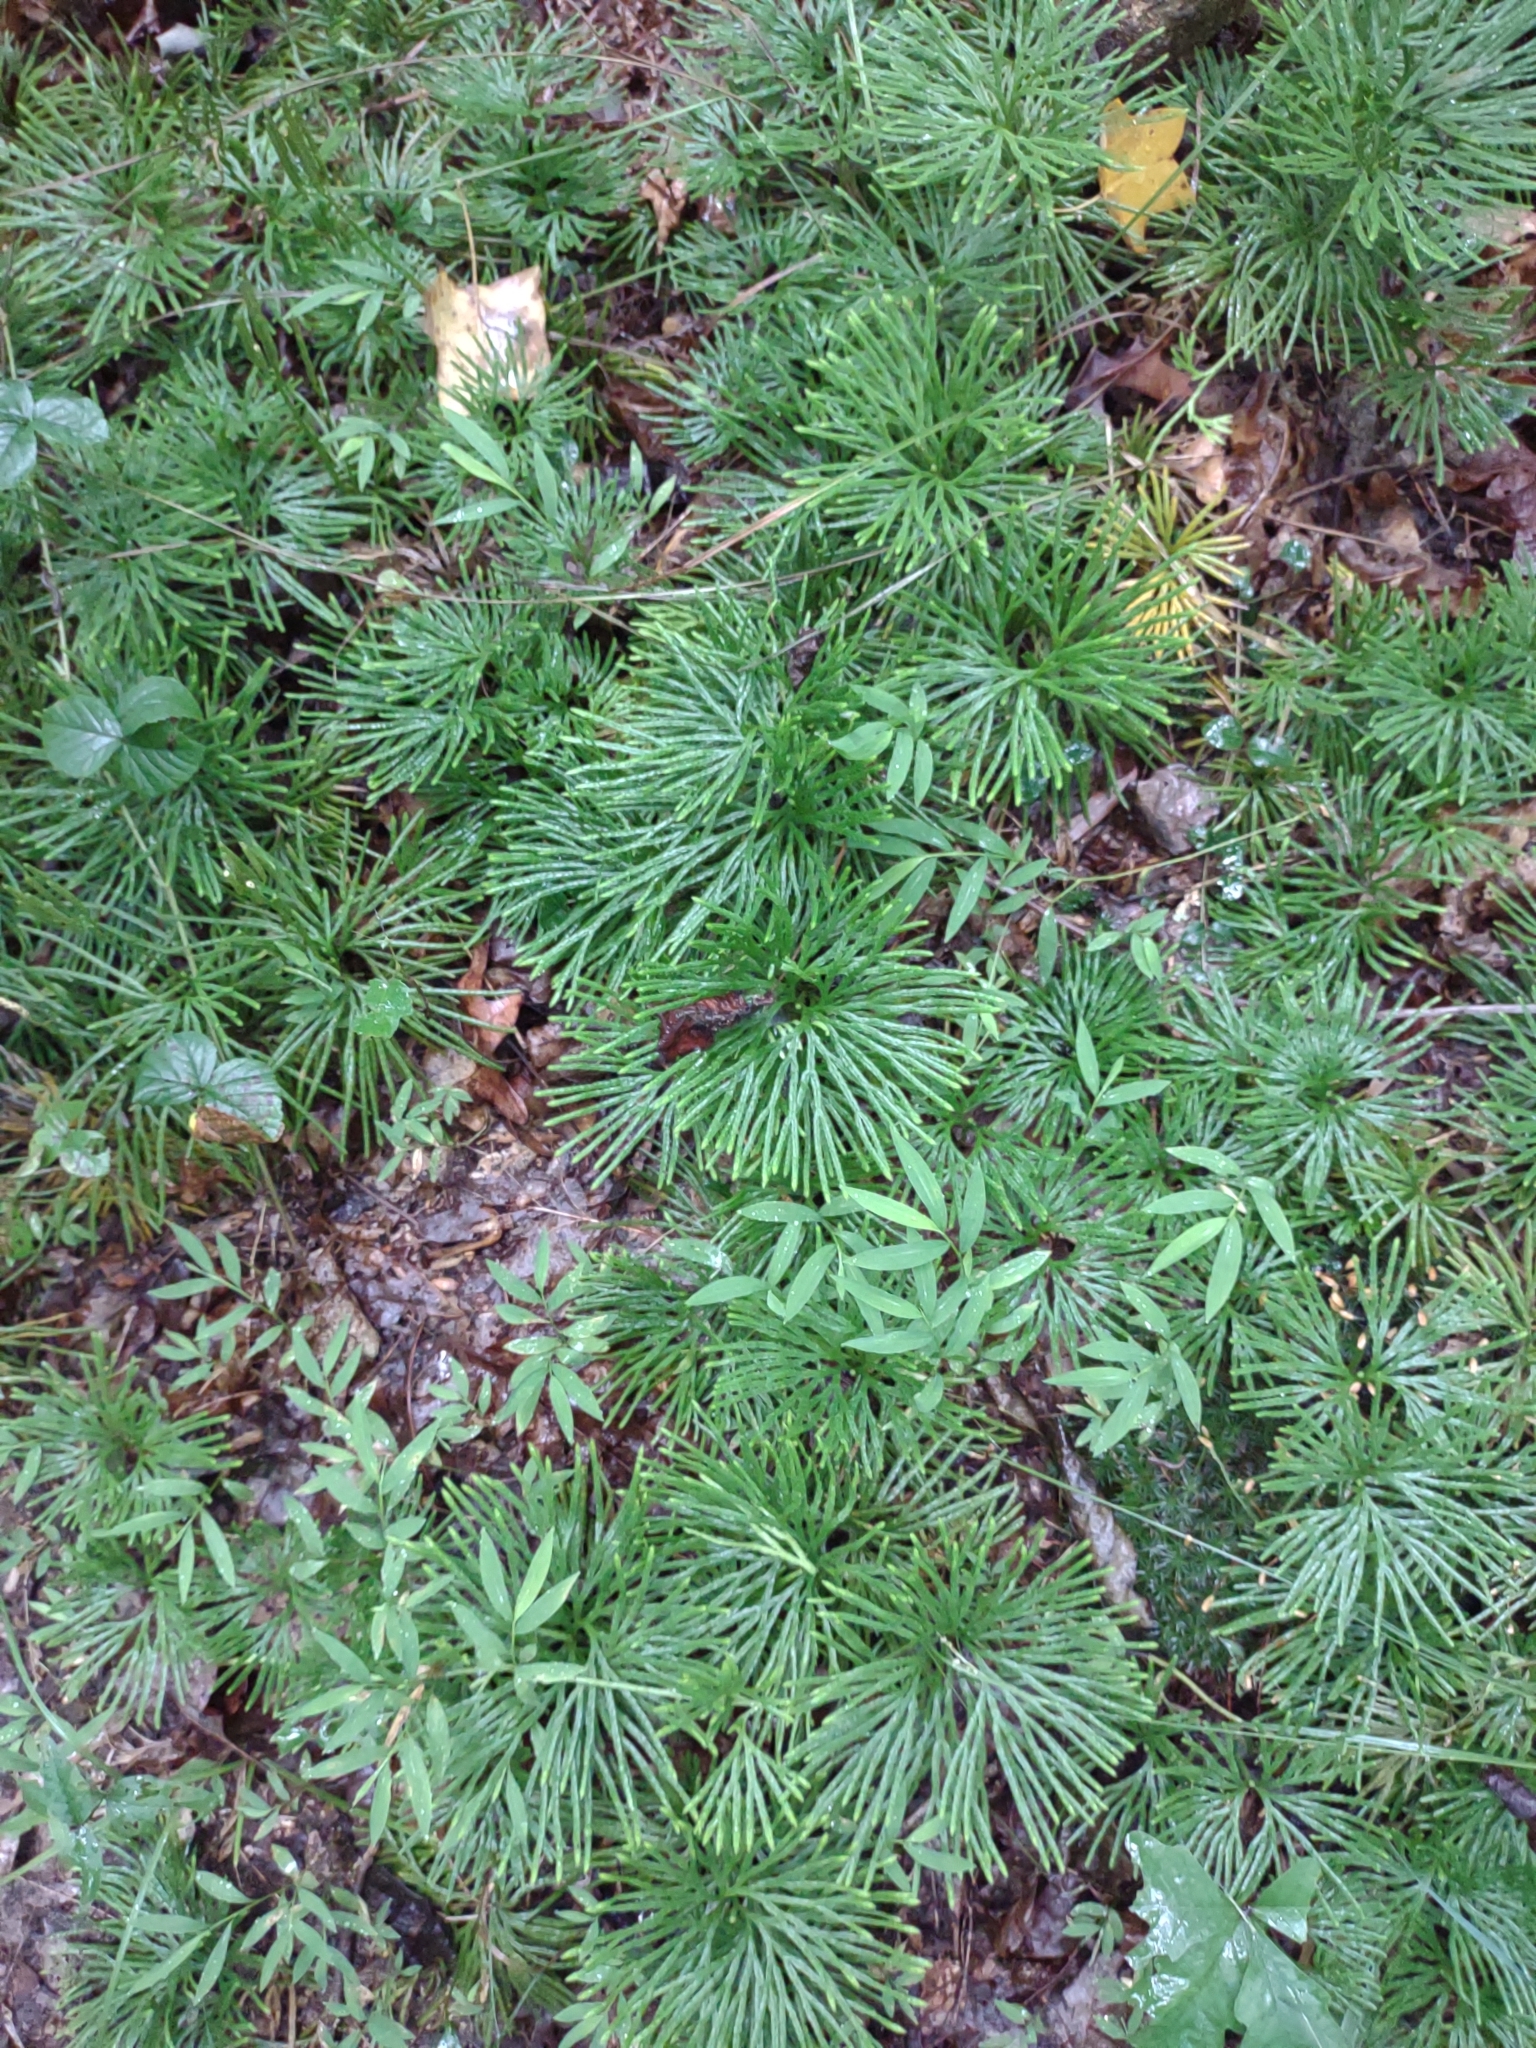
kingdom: Plantae
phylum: Tracheophyta
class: Lycopodiopsida
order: Lycopodiales
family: Lycopodiaceae
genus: Diphasiastrum
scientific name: Diphasiastrum digitatum
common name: Southern running-pine
